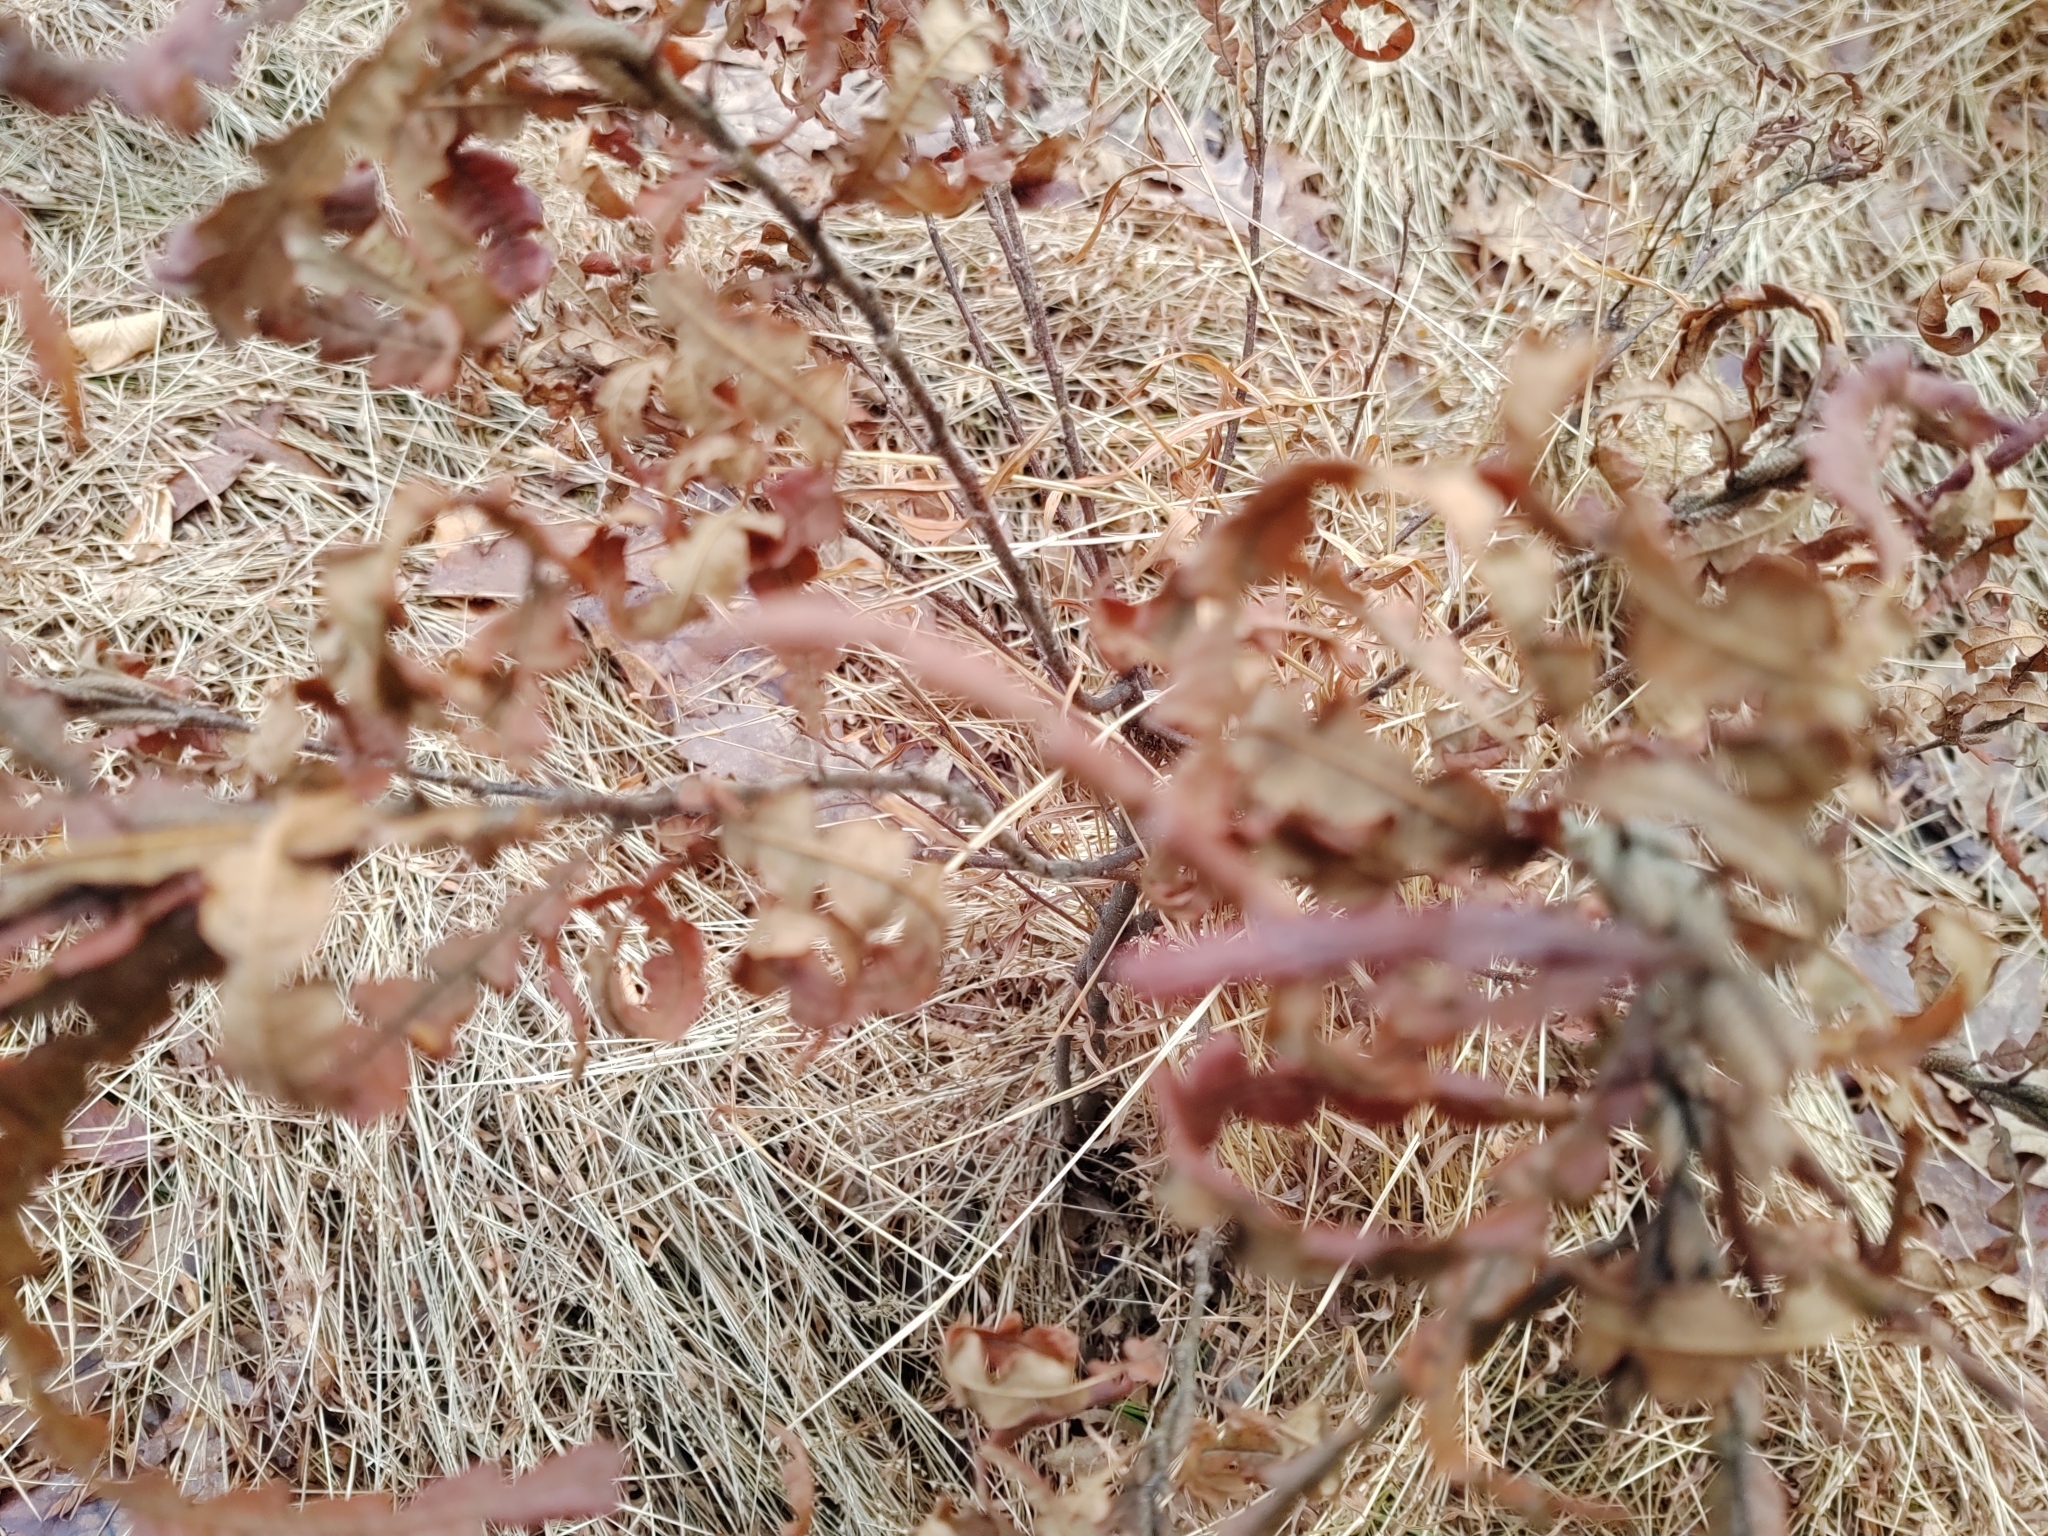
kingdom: Plantae
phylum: Tracheophyta
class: Magnoliopsida
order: Fagales
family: Myricaceae
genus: Comptonia
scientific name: Comptonia peregrina
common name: Sweet-fern
